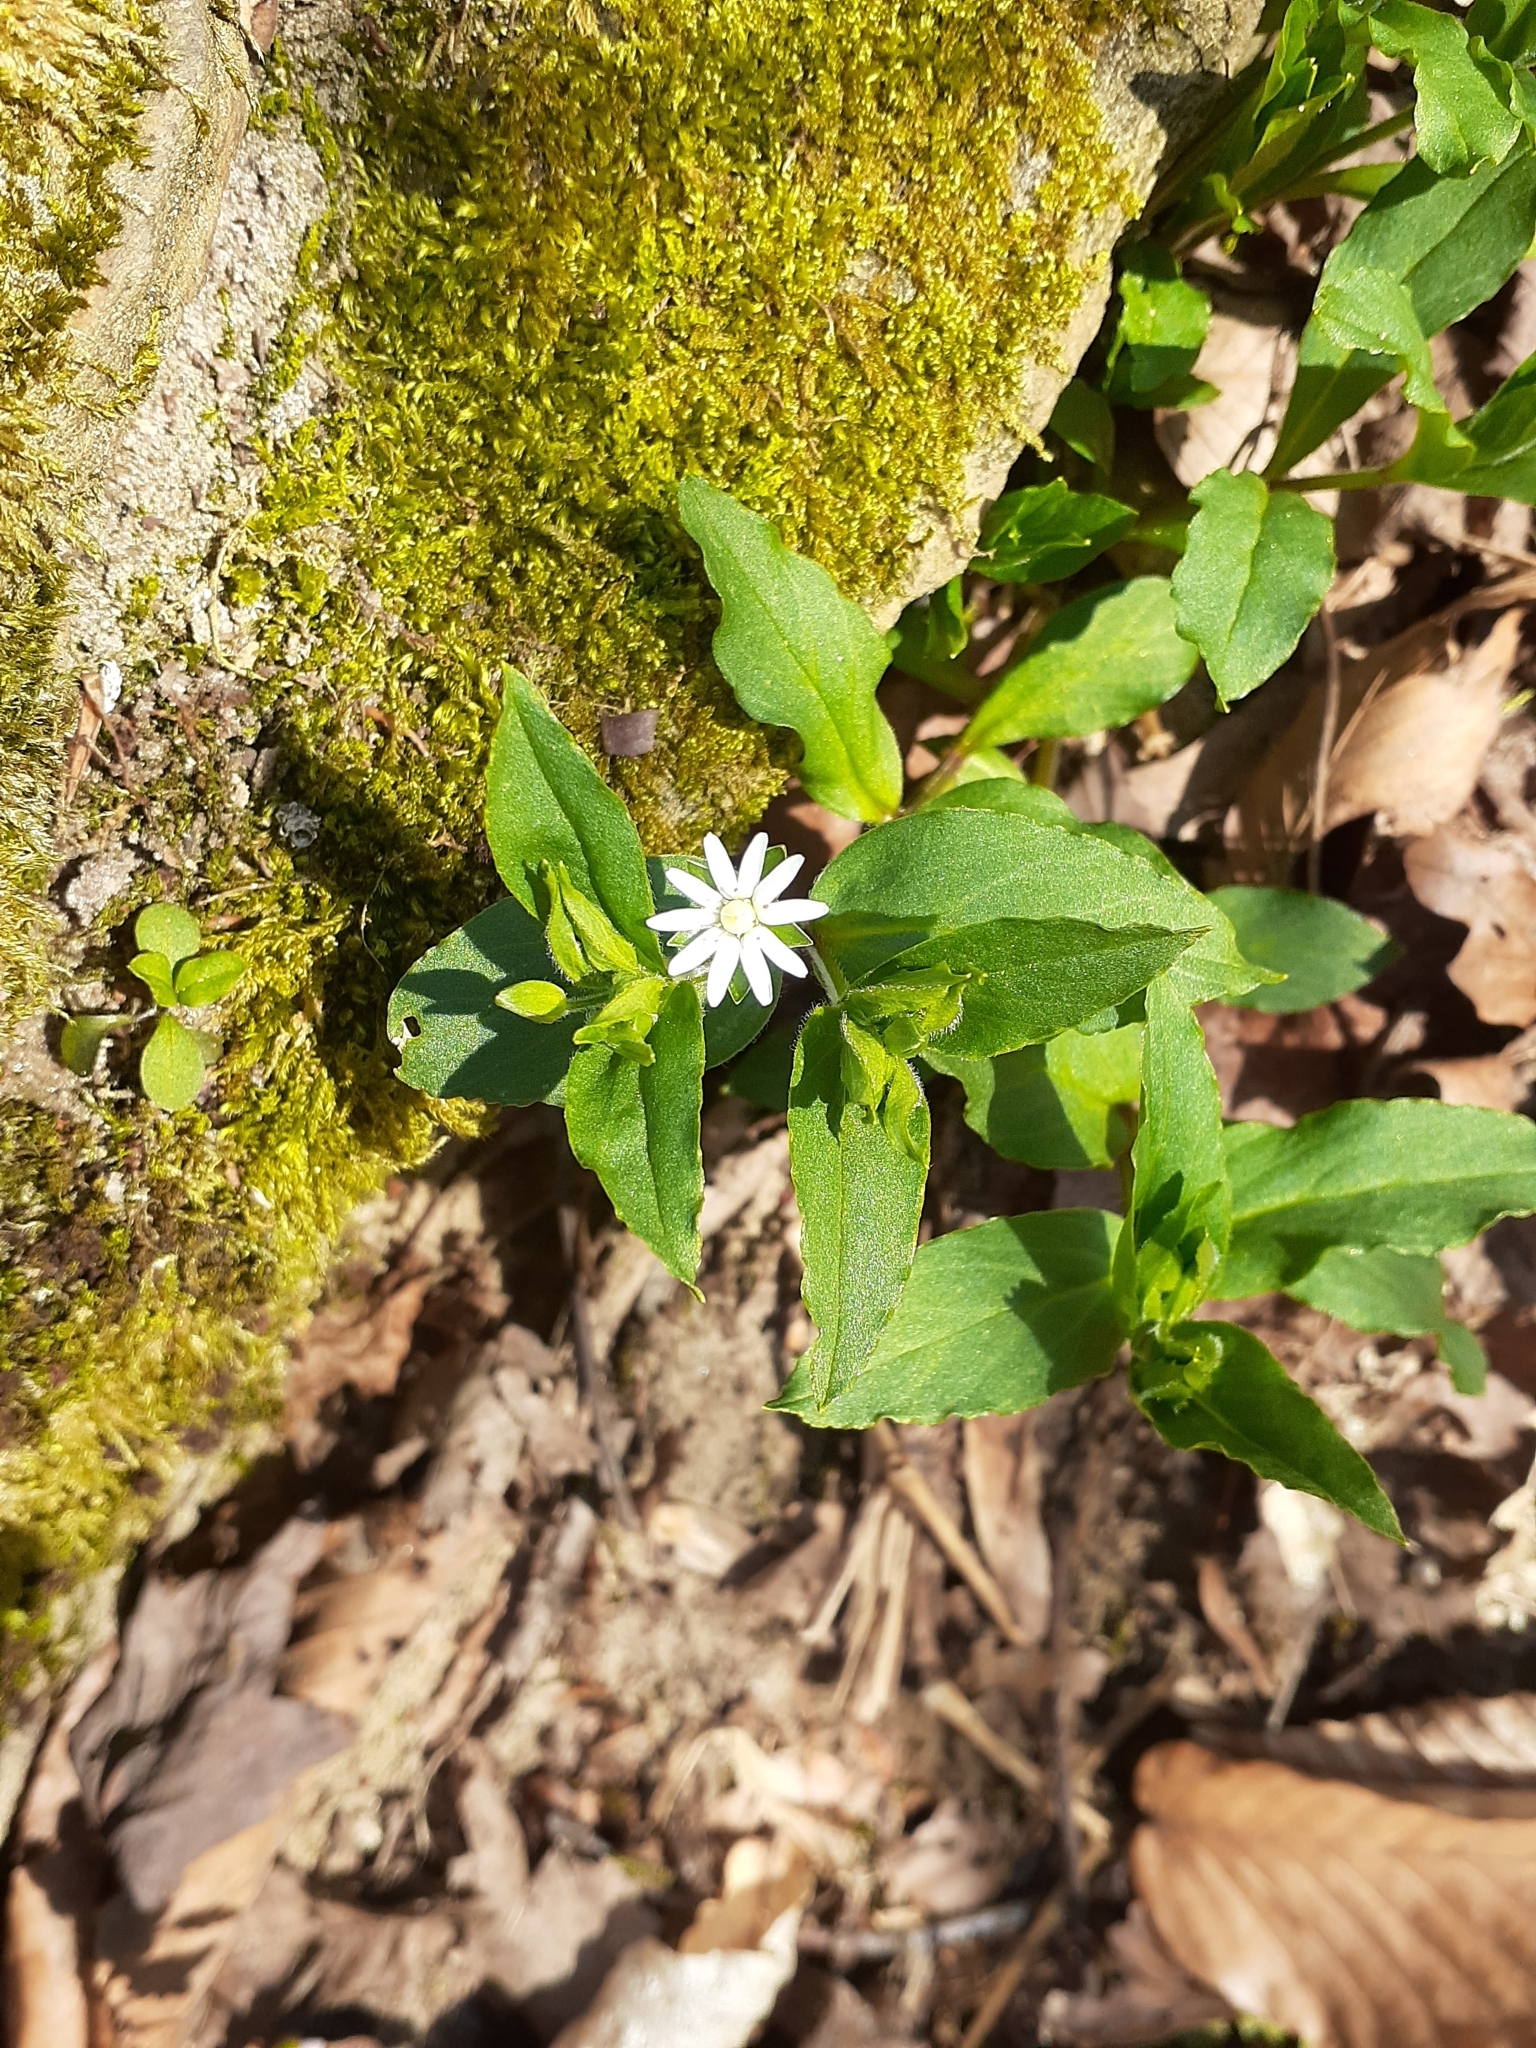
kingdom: Plantae
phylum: Tracheophyta
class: Magnoliopsida
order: Caryophyllales
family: Caryophyllaceae
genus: Stellaria
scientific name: Stellaria pubera
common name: Star chickweed
